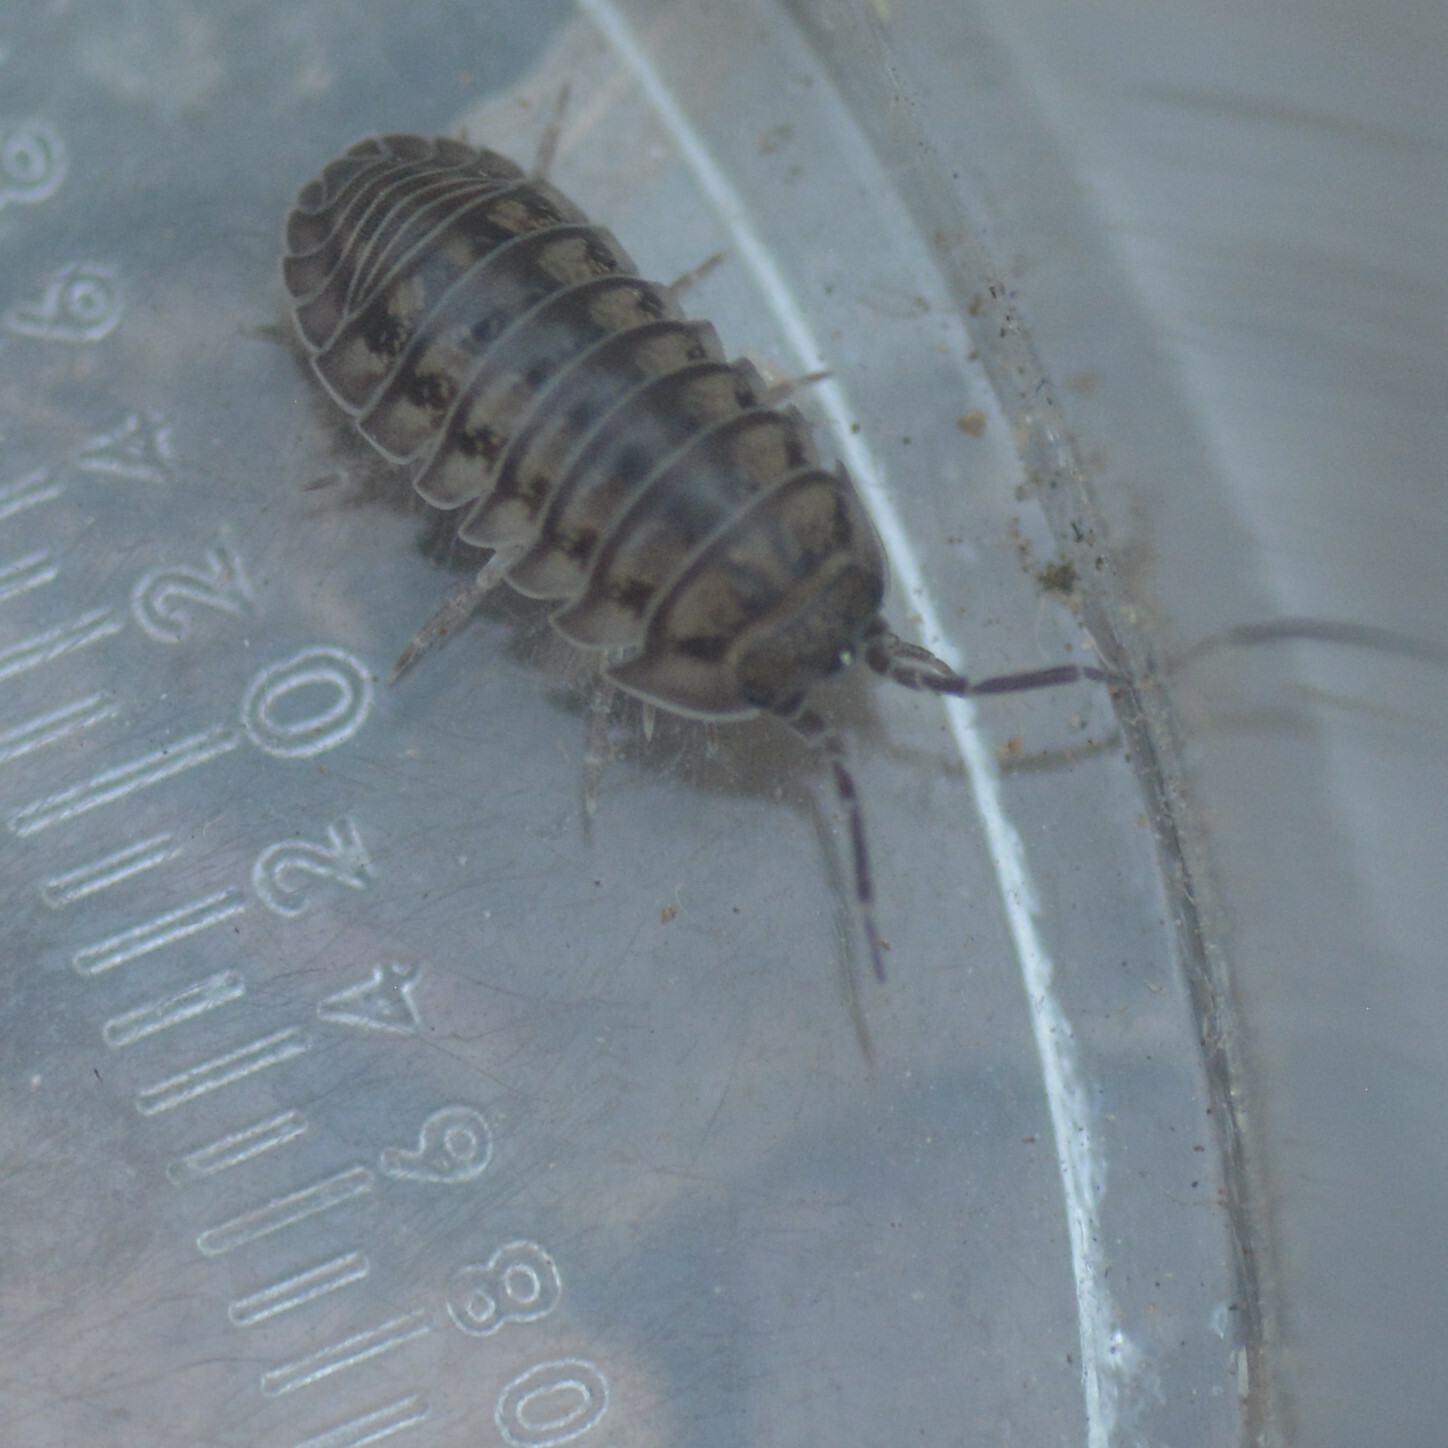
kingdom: Animalia
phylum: Arthropoda
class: Malacostraca
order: Isopoda
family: Armadillidiidae
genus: Armadillidium
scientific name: Armadillidium nasatum
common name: Isopod
